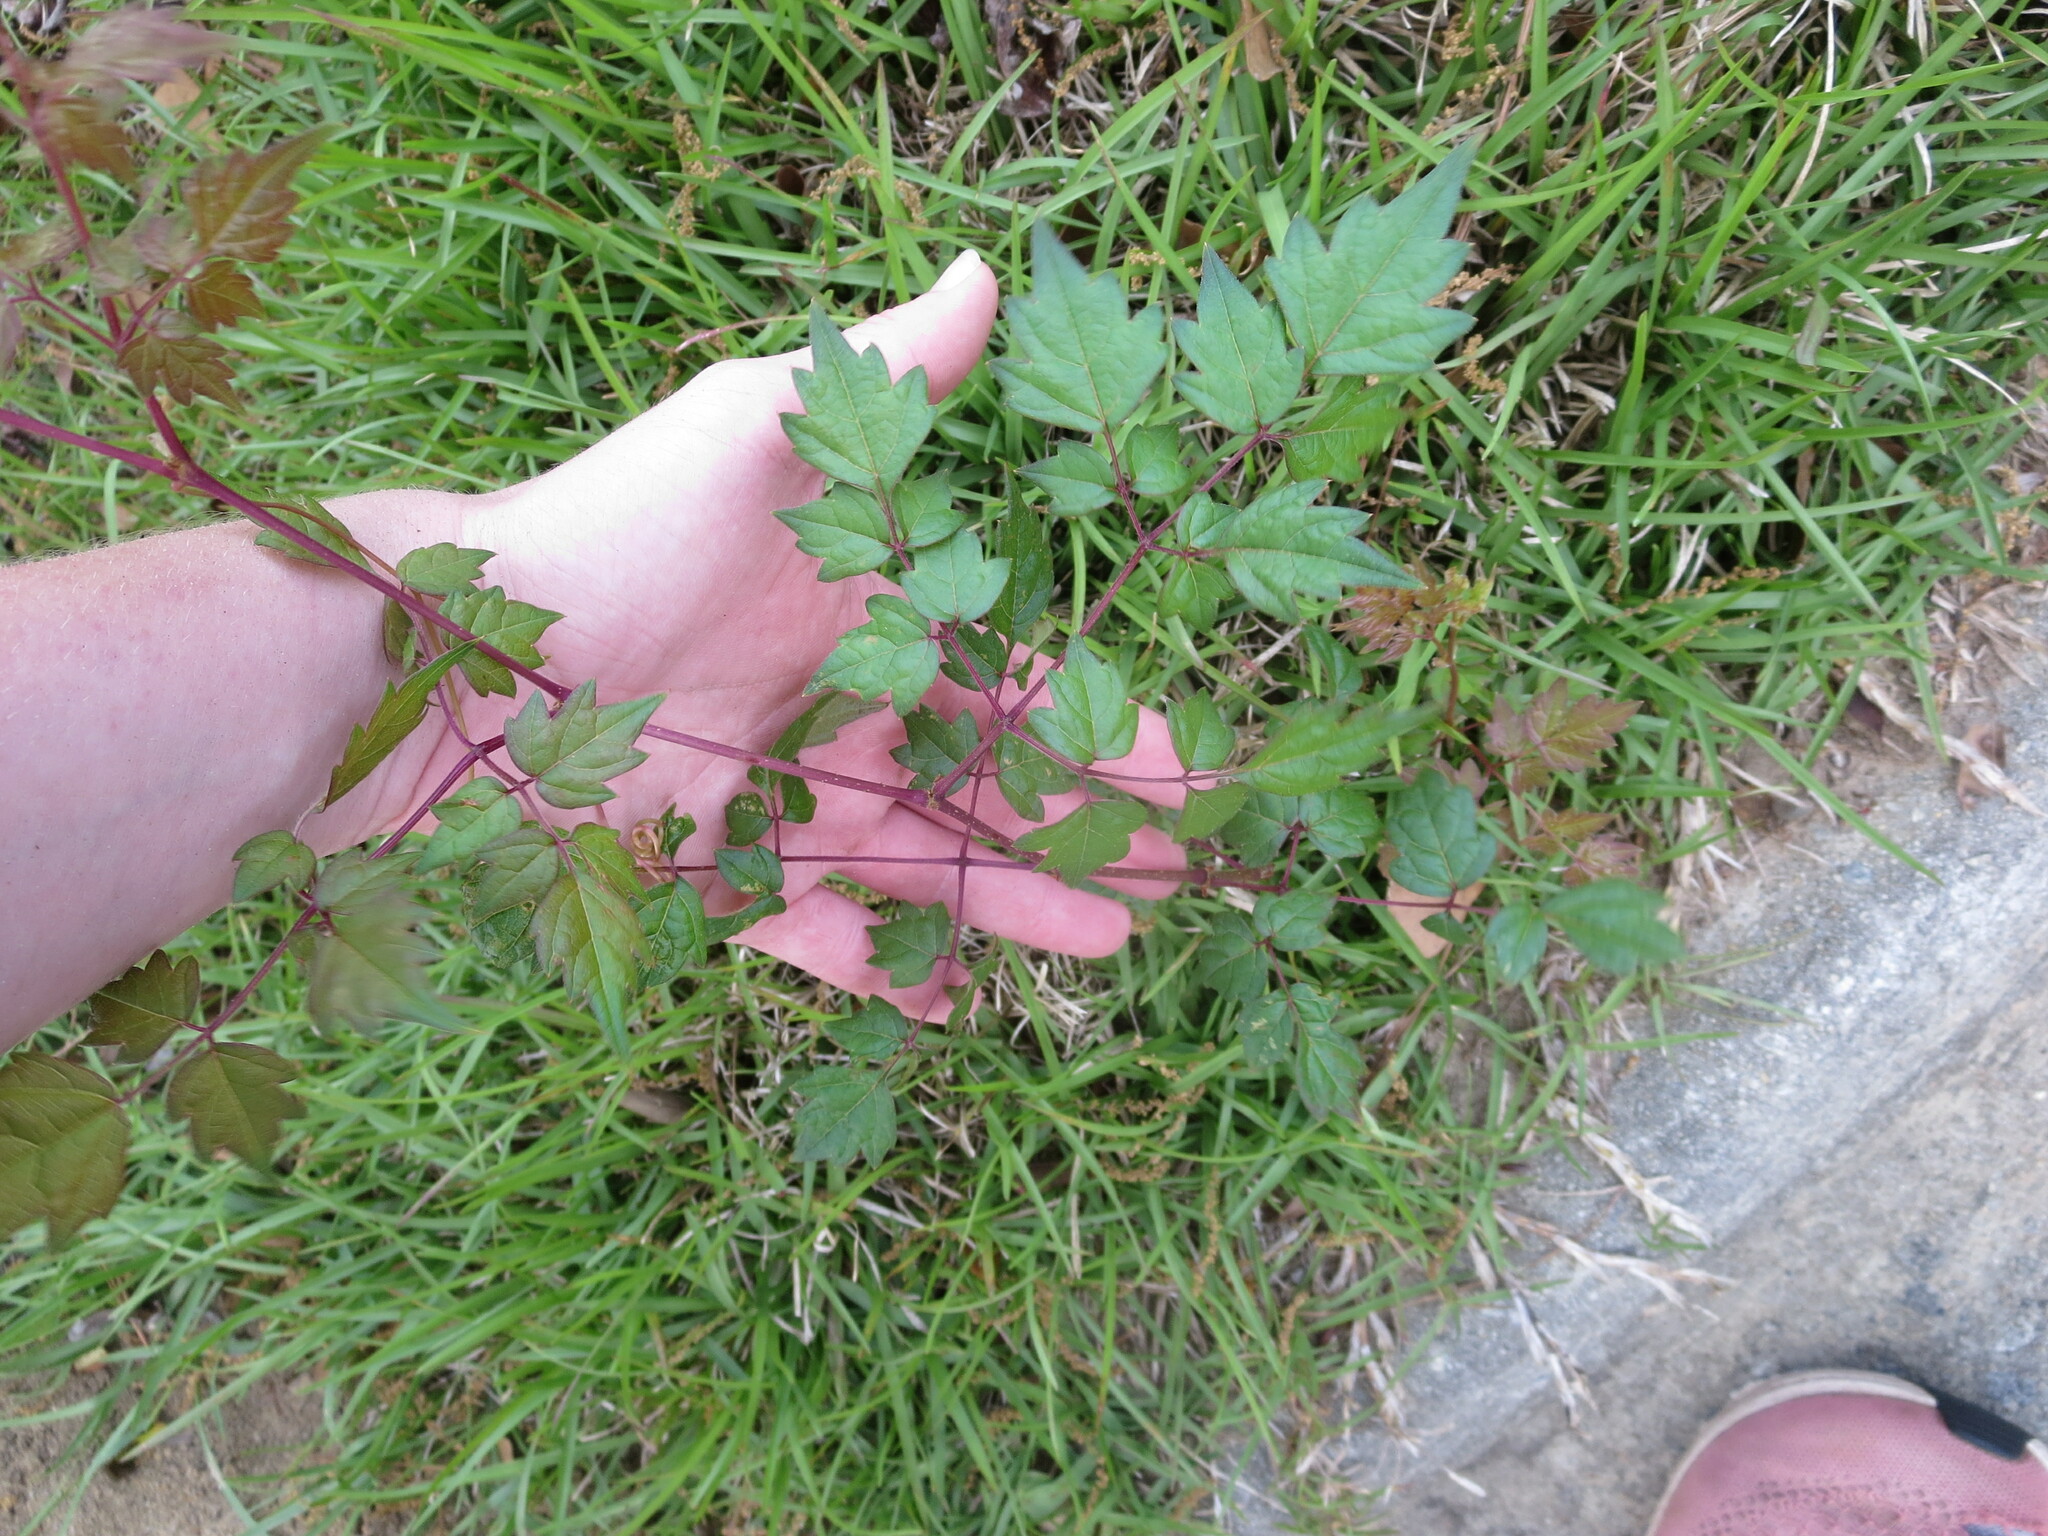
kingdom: Plantae
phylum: Tracheophyta
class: Magnoliopsida
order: Vitales
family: Vitaceae
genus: Nekemias
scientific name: Nekemias arborea
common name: Peppervine
